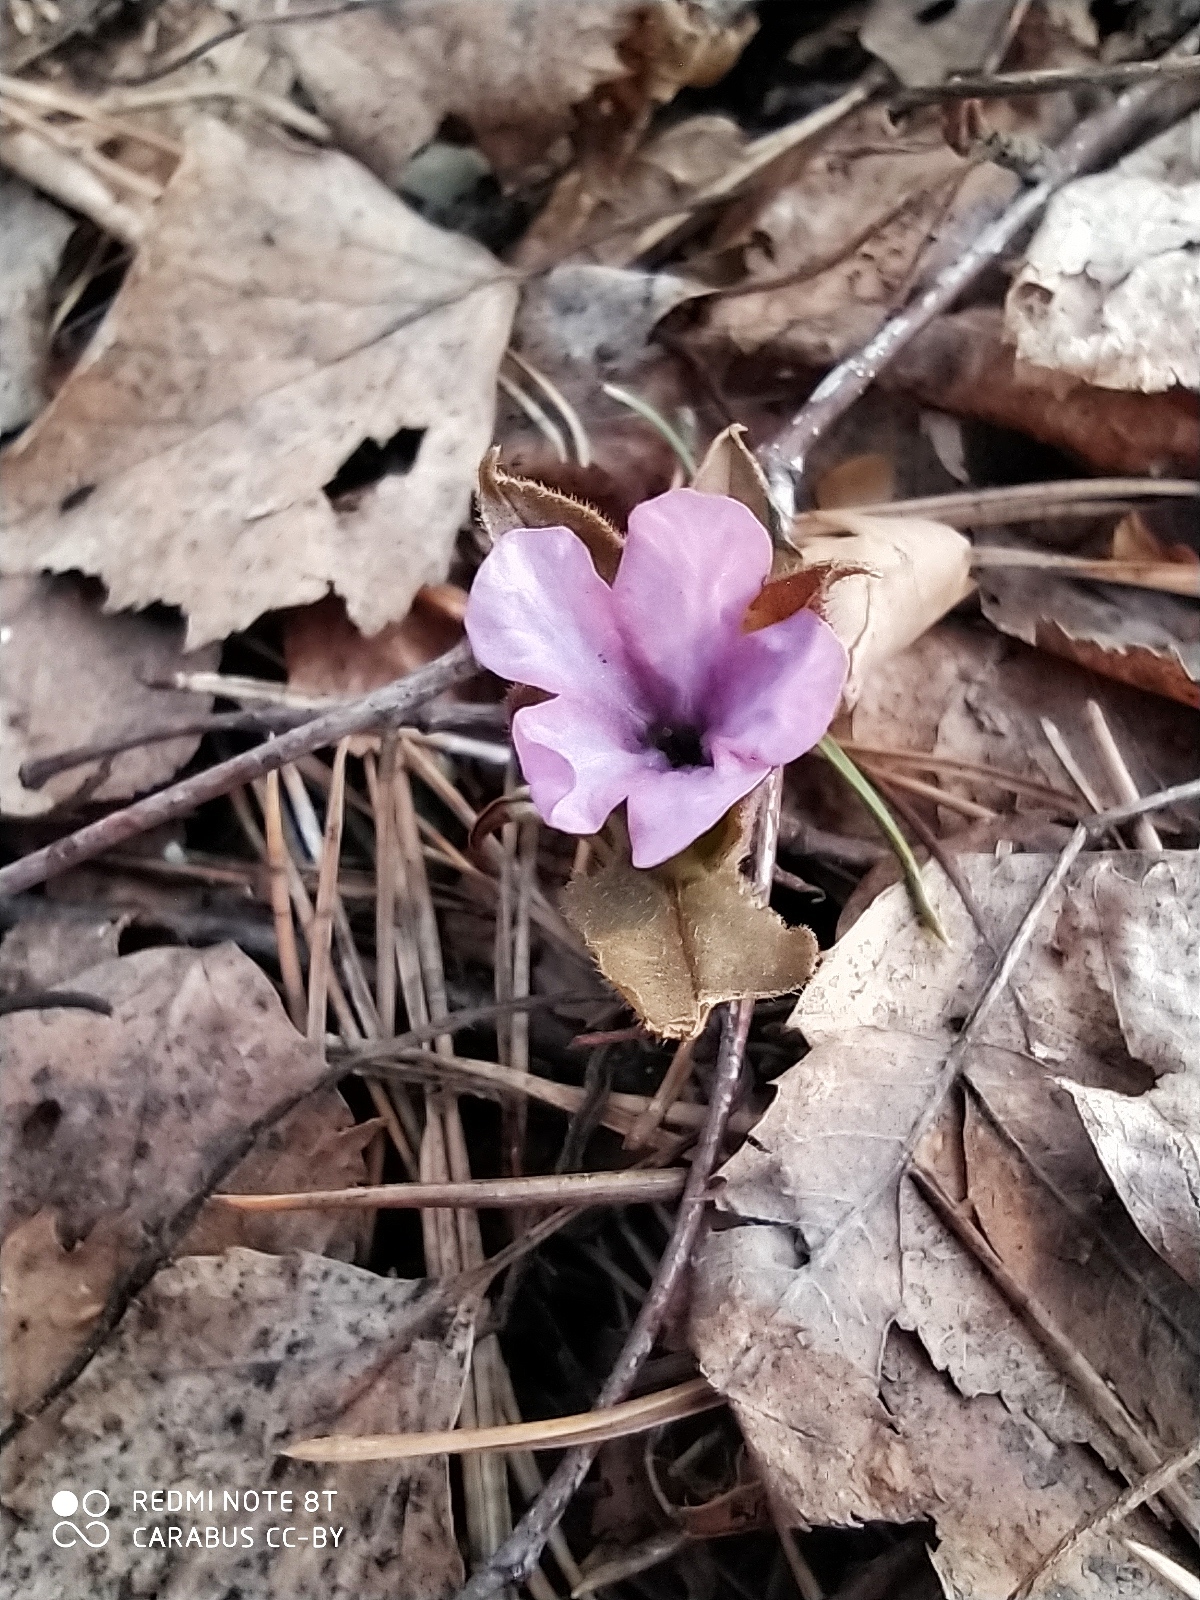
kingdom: Plantae
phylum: Tracheophyta
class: Magnoliopsida
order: Boraginales
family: Boraginaceae
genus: Pulmonaria
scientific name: Pulmonaria obscura
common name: Suffolk lungwort
